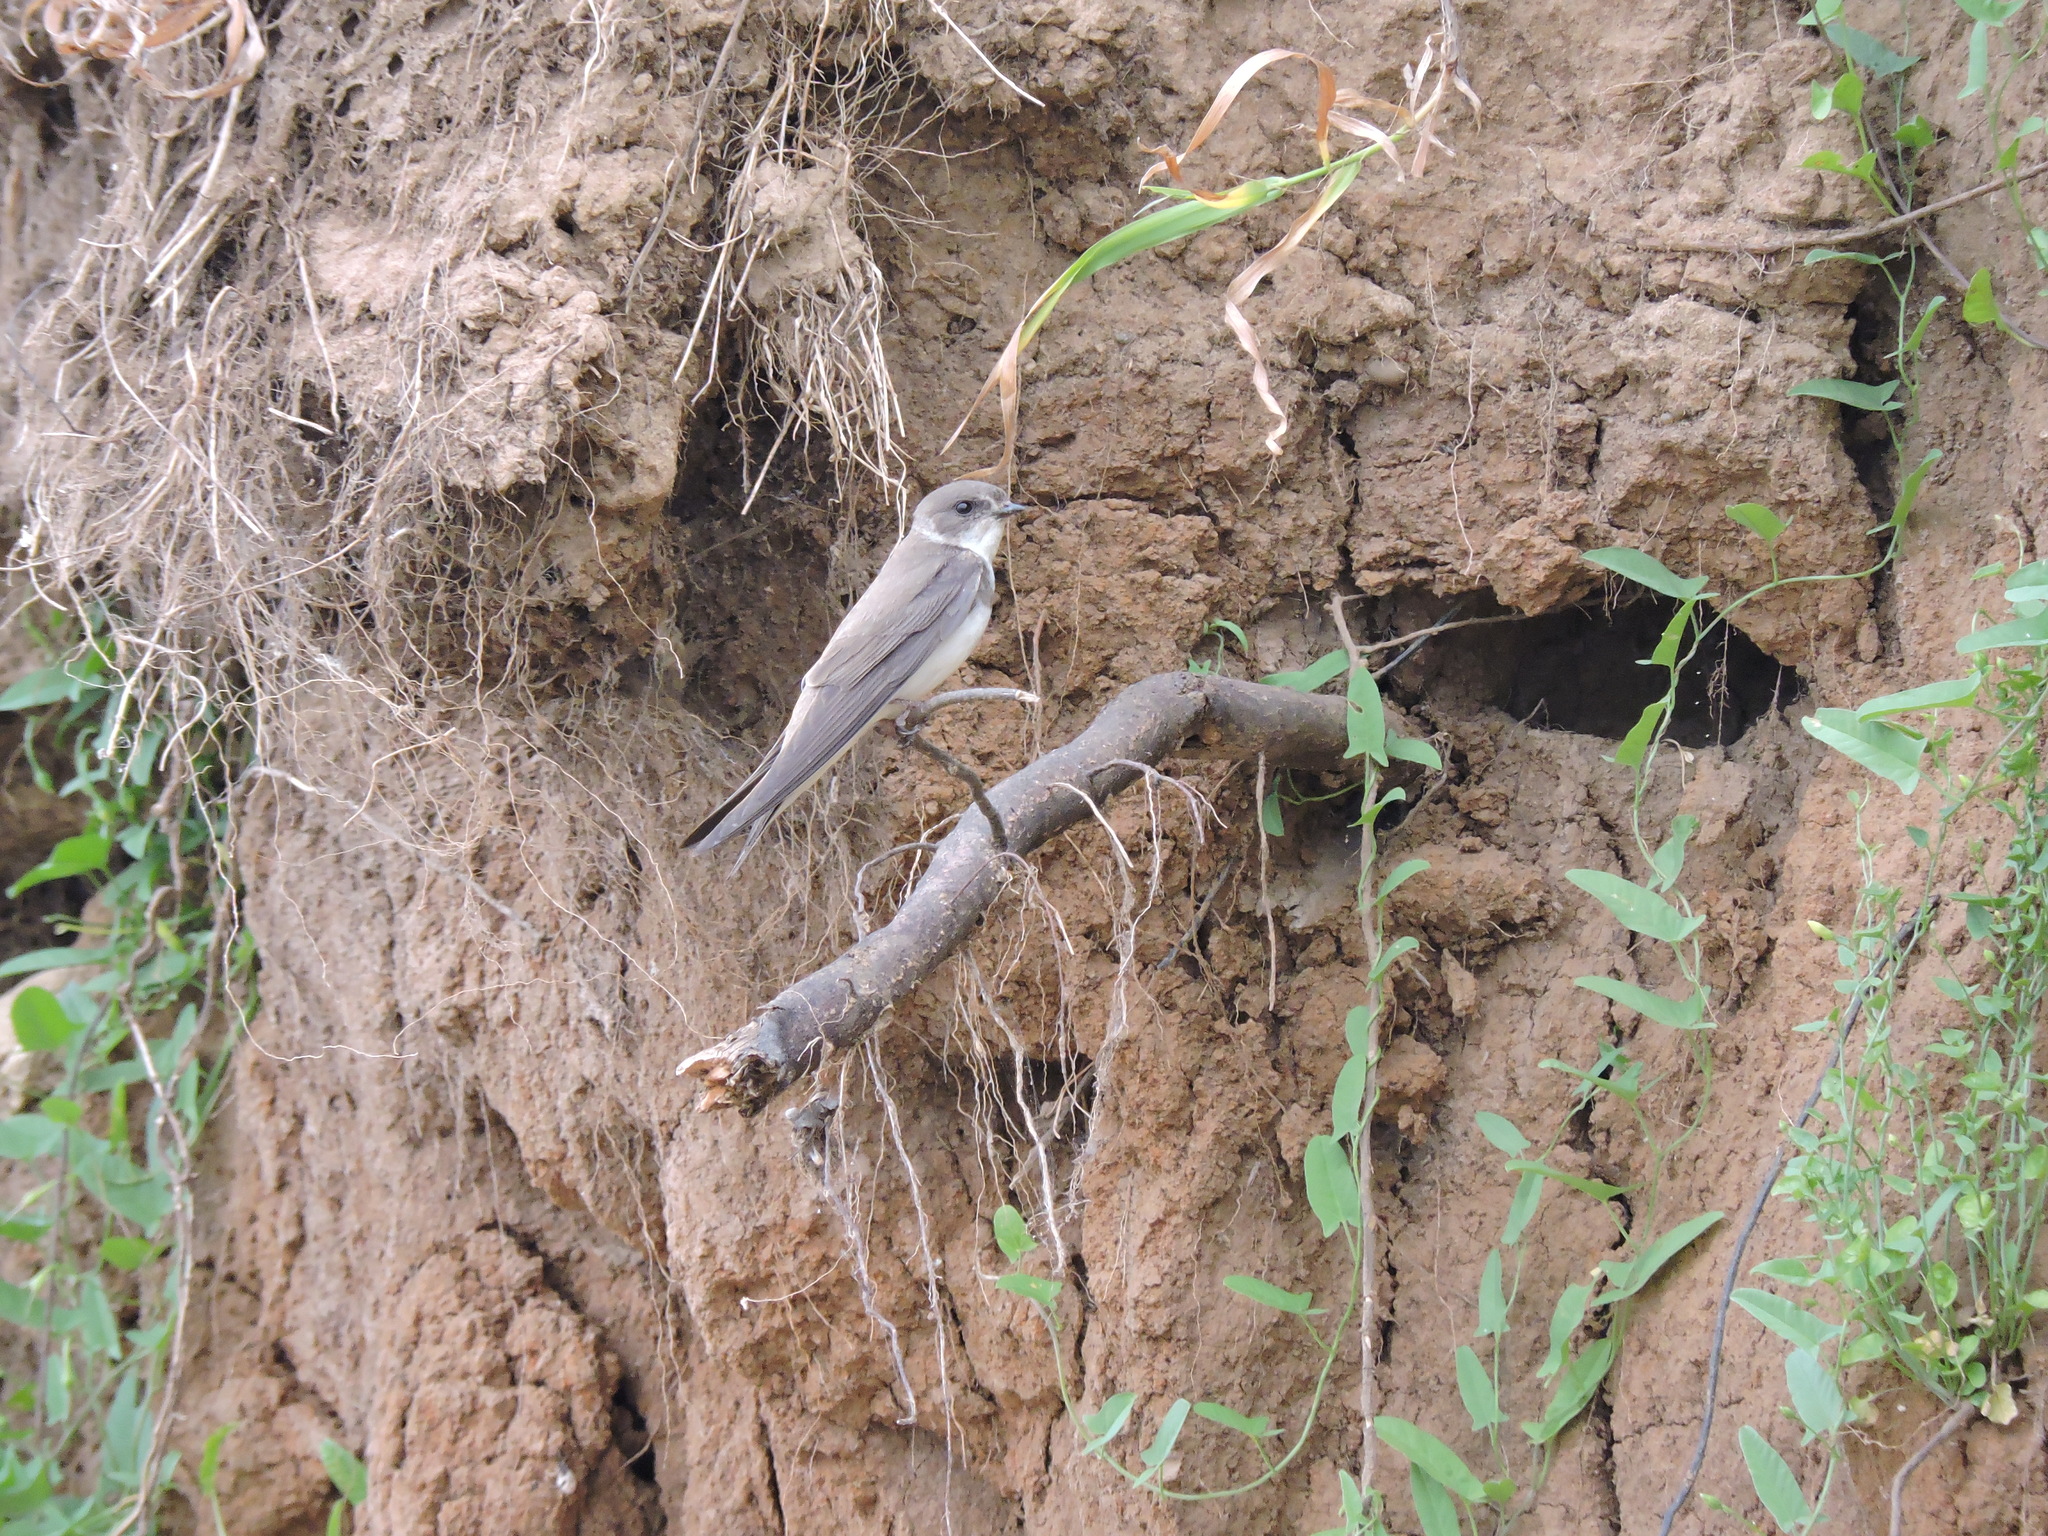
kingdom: Animalia
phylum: Chordata
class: Aves
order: Passeriformes
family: Hirundinidae
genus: Riparia
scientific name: Riparia riparia
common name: Sand martin
